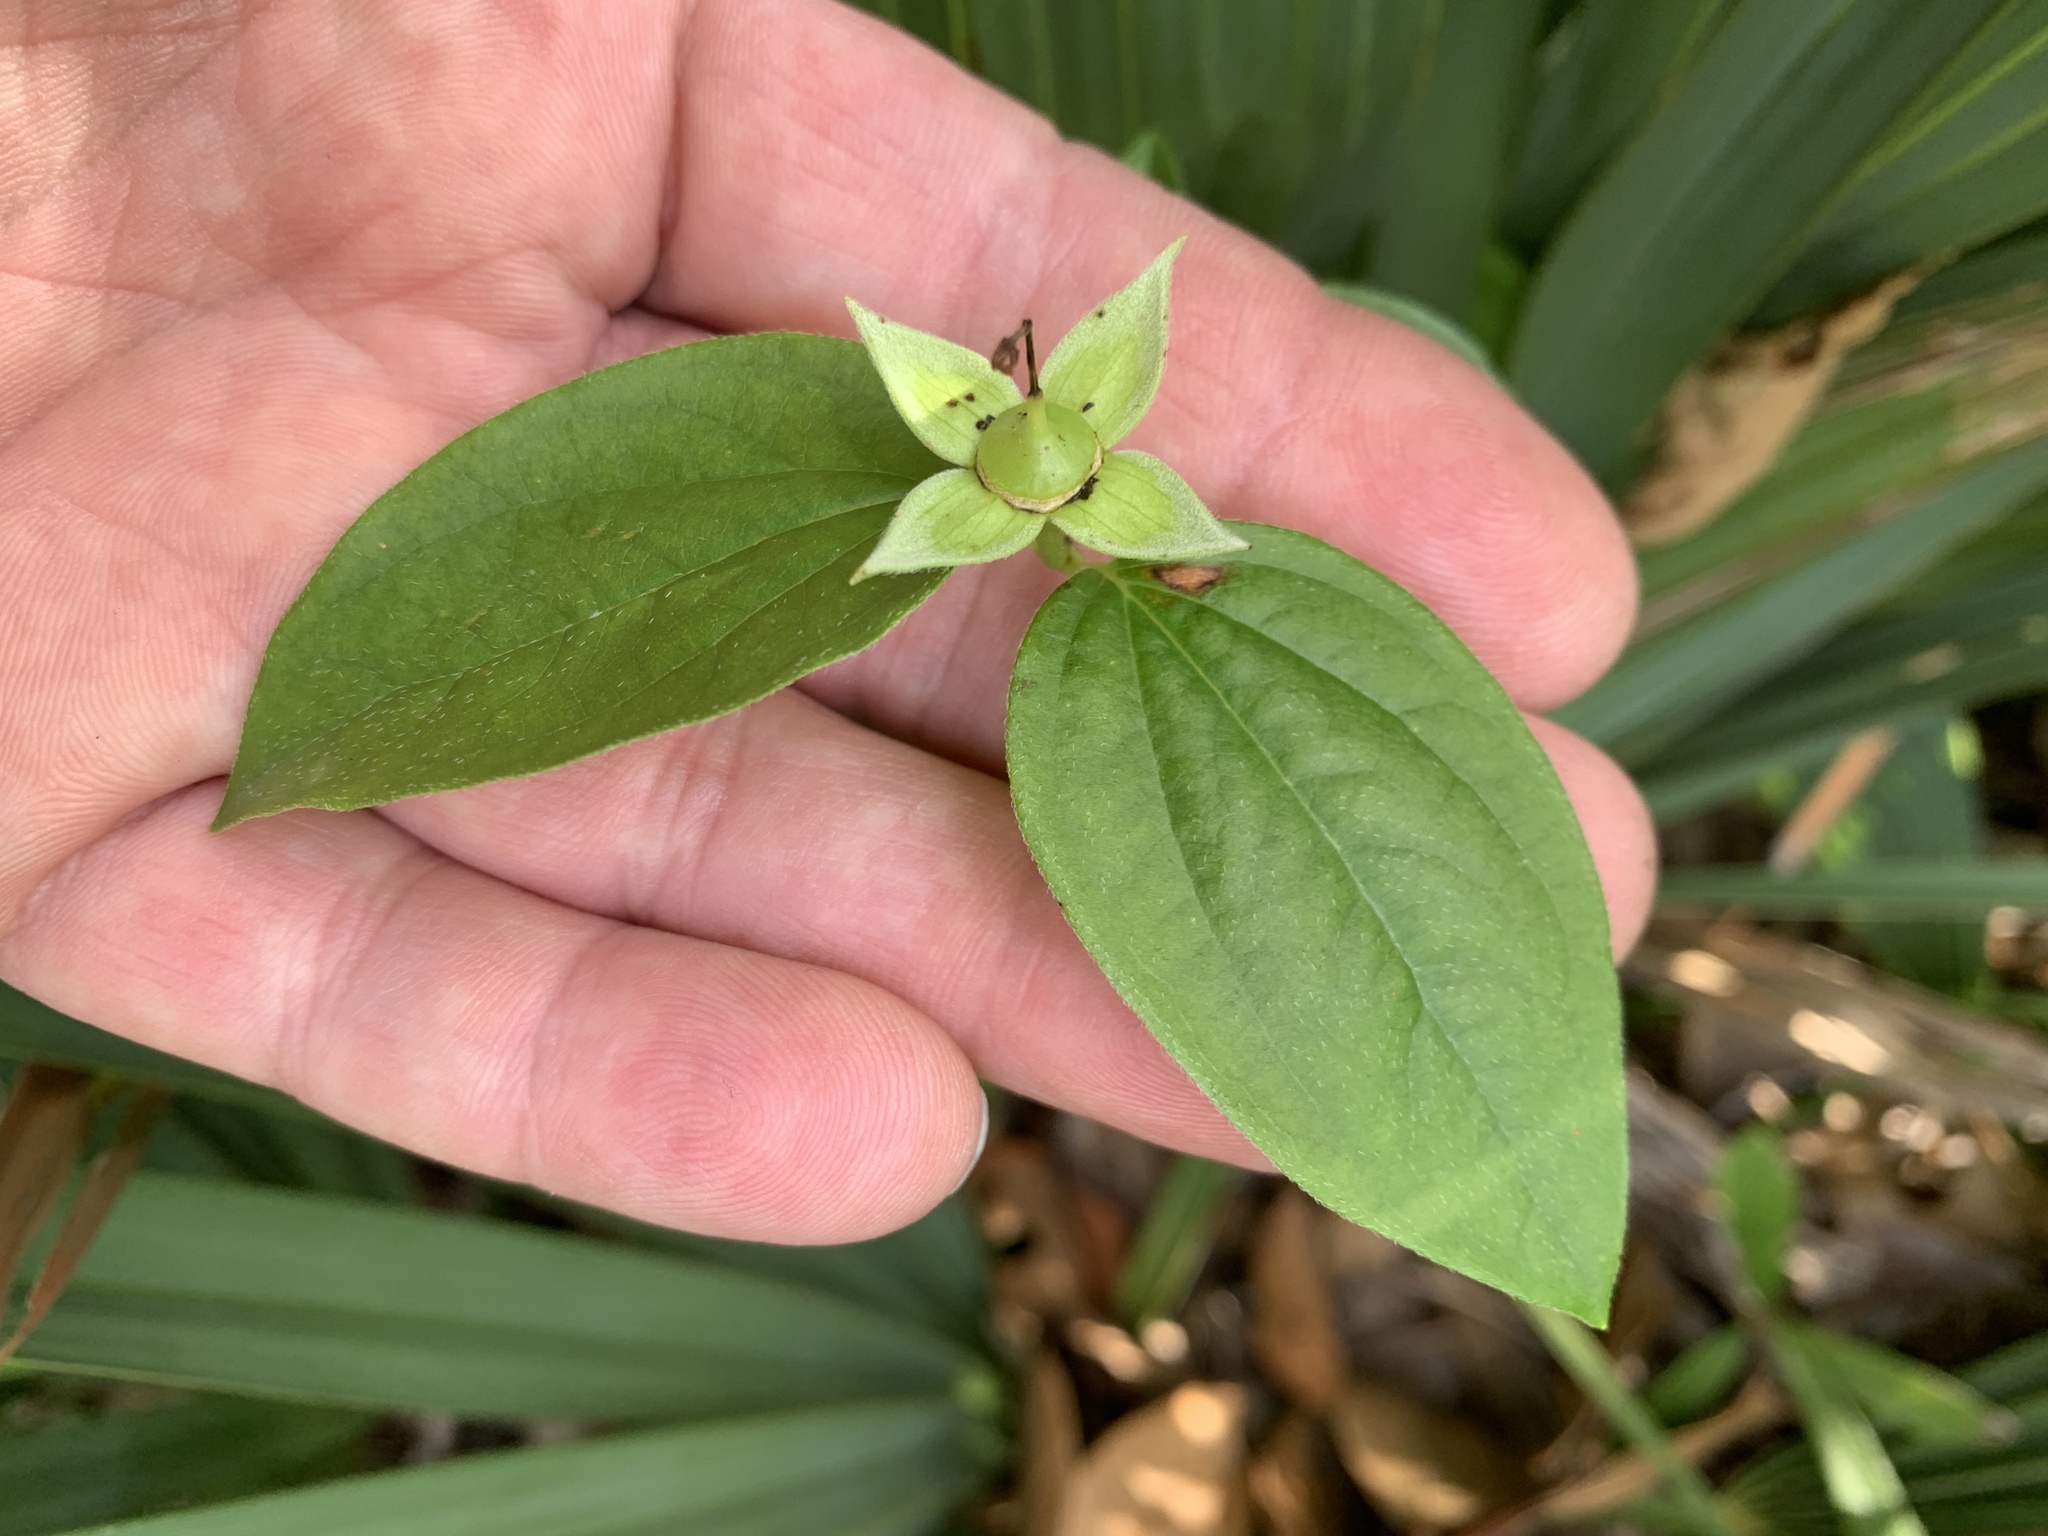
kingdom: Plantae
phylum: Tracheophyta
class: Magnoliopsida
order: Cornales
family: Cornaceae
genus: Cornus
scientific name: Cornus drummondii
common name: Rough-leaf dogwood
